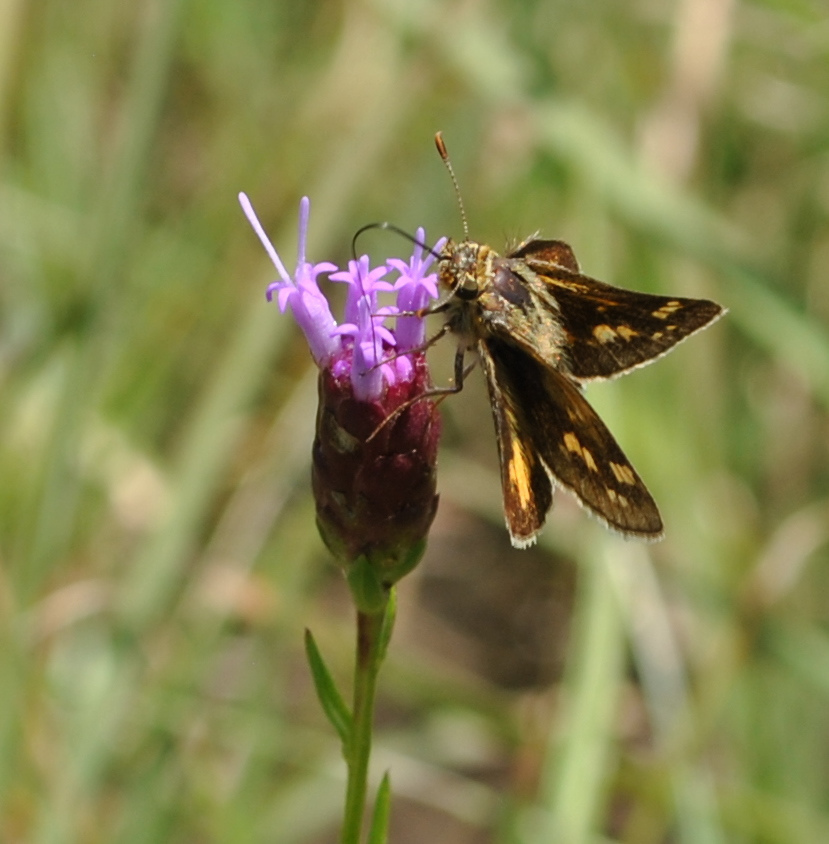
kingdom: Animalia
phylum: Arthropoda
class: Insecta
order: Lepidoptera
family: Hesperiidae
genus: Polites
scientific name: Polites coras
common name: Peck's skipper
